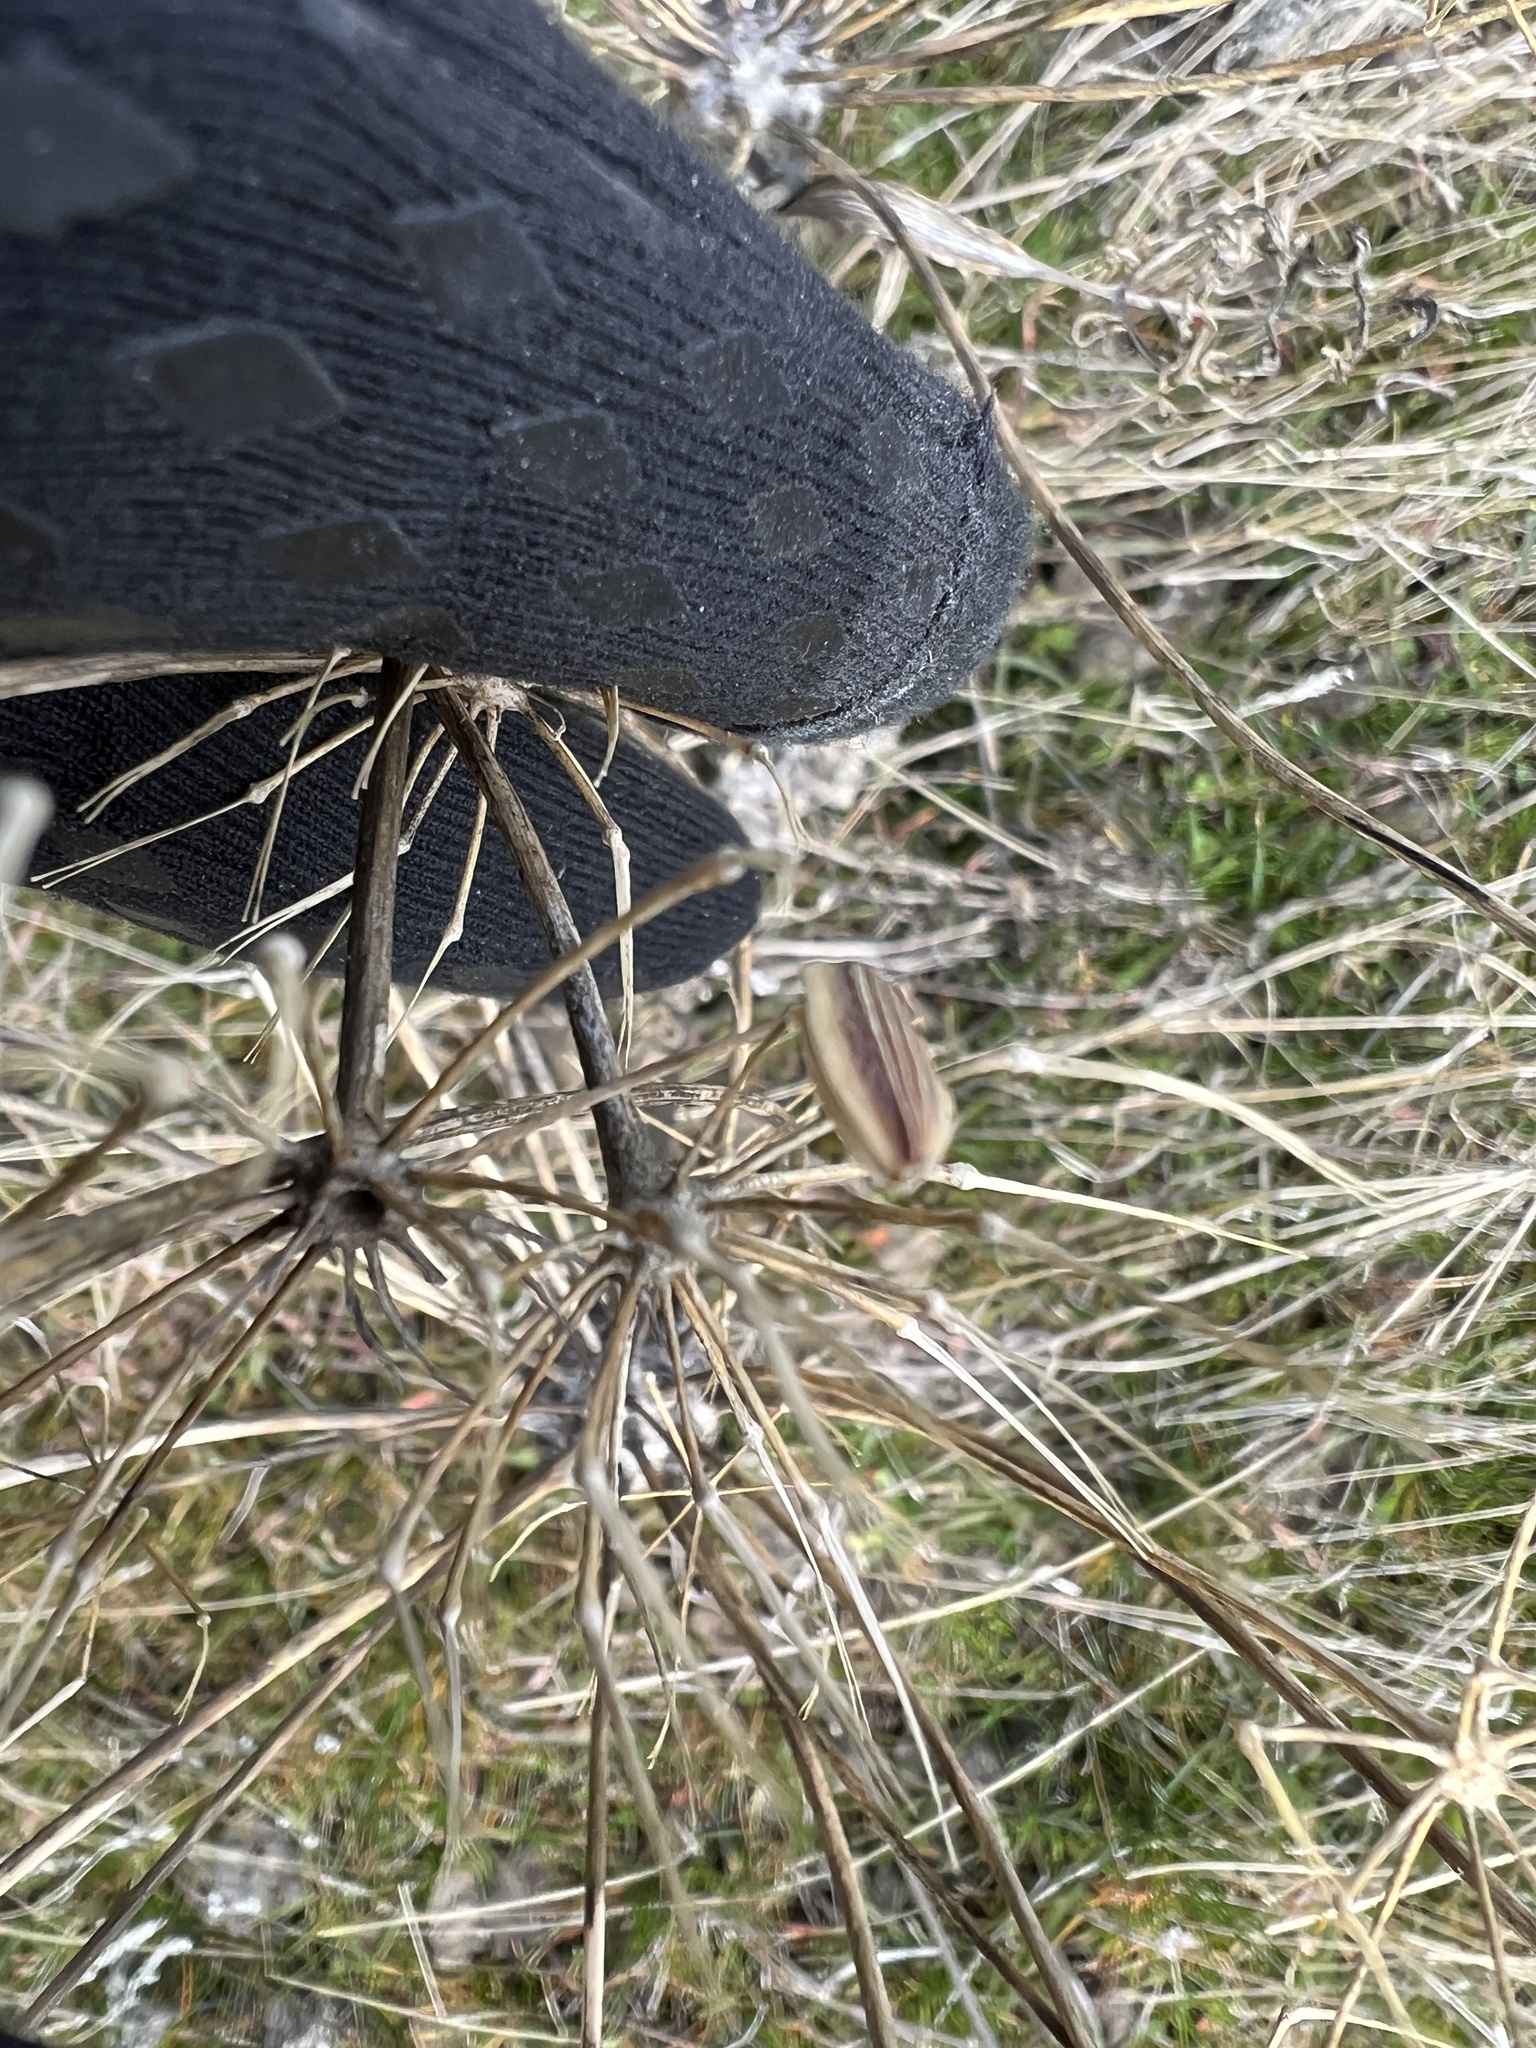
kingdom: Plantae
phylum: Tracheophyta
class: Magnoliopsida
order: Apiales
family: Apiaceae
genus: Lomatium
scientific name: Lomatium nudicaule
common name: Pestle lomatium
